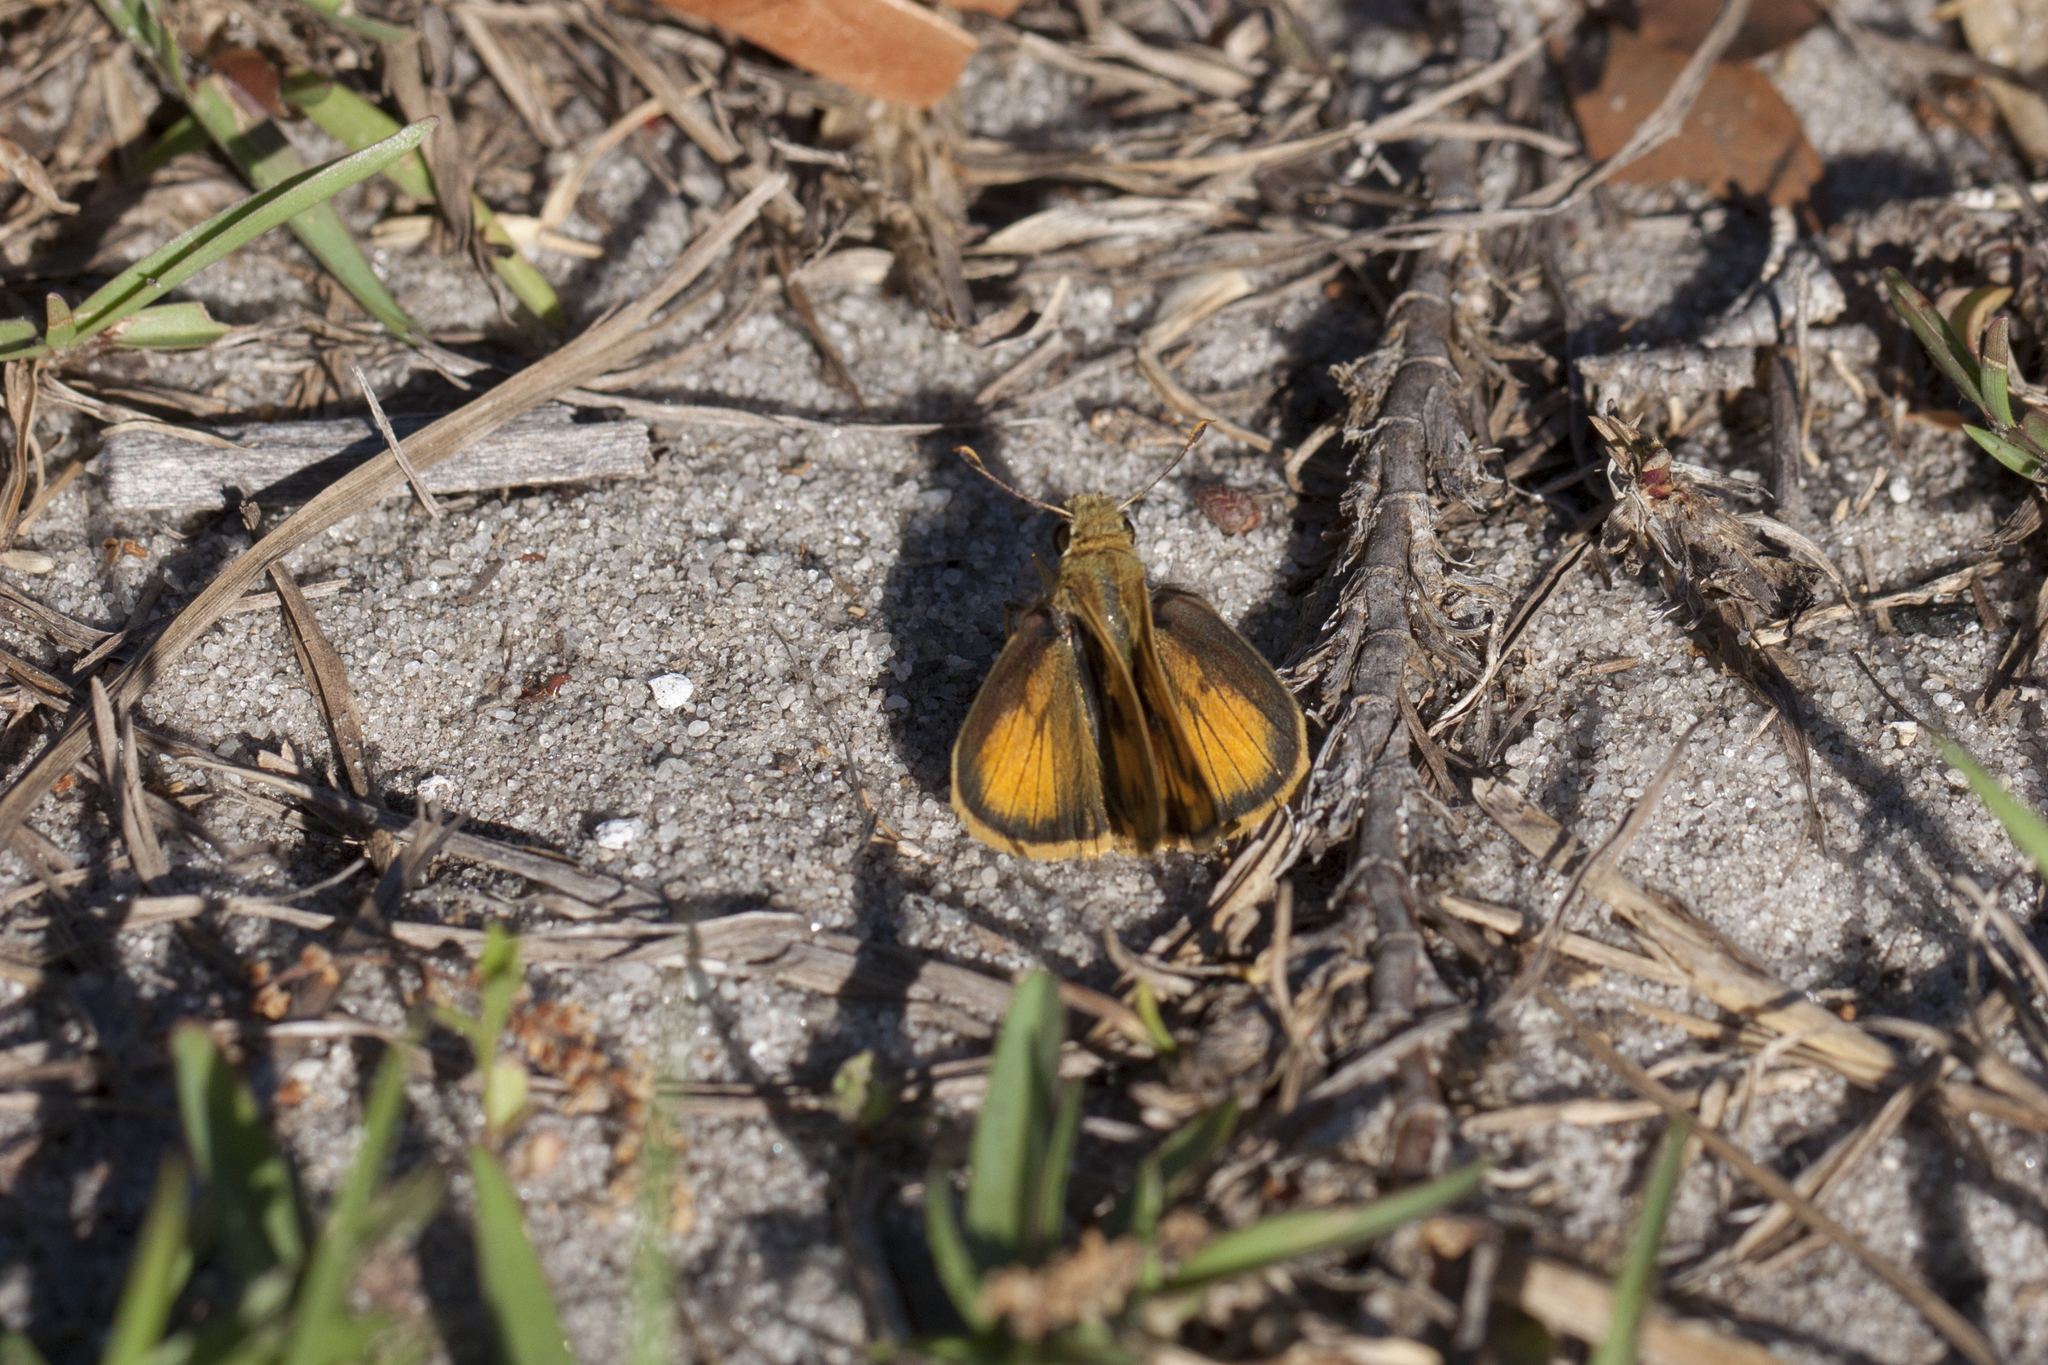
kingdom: Animalia
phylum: Arthropoda
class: Insecta
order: Lepidoptera
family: Hesperiidae
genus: Polites
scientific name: Polites vibex
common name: Whirlabout
